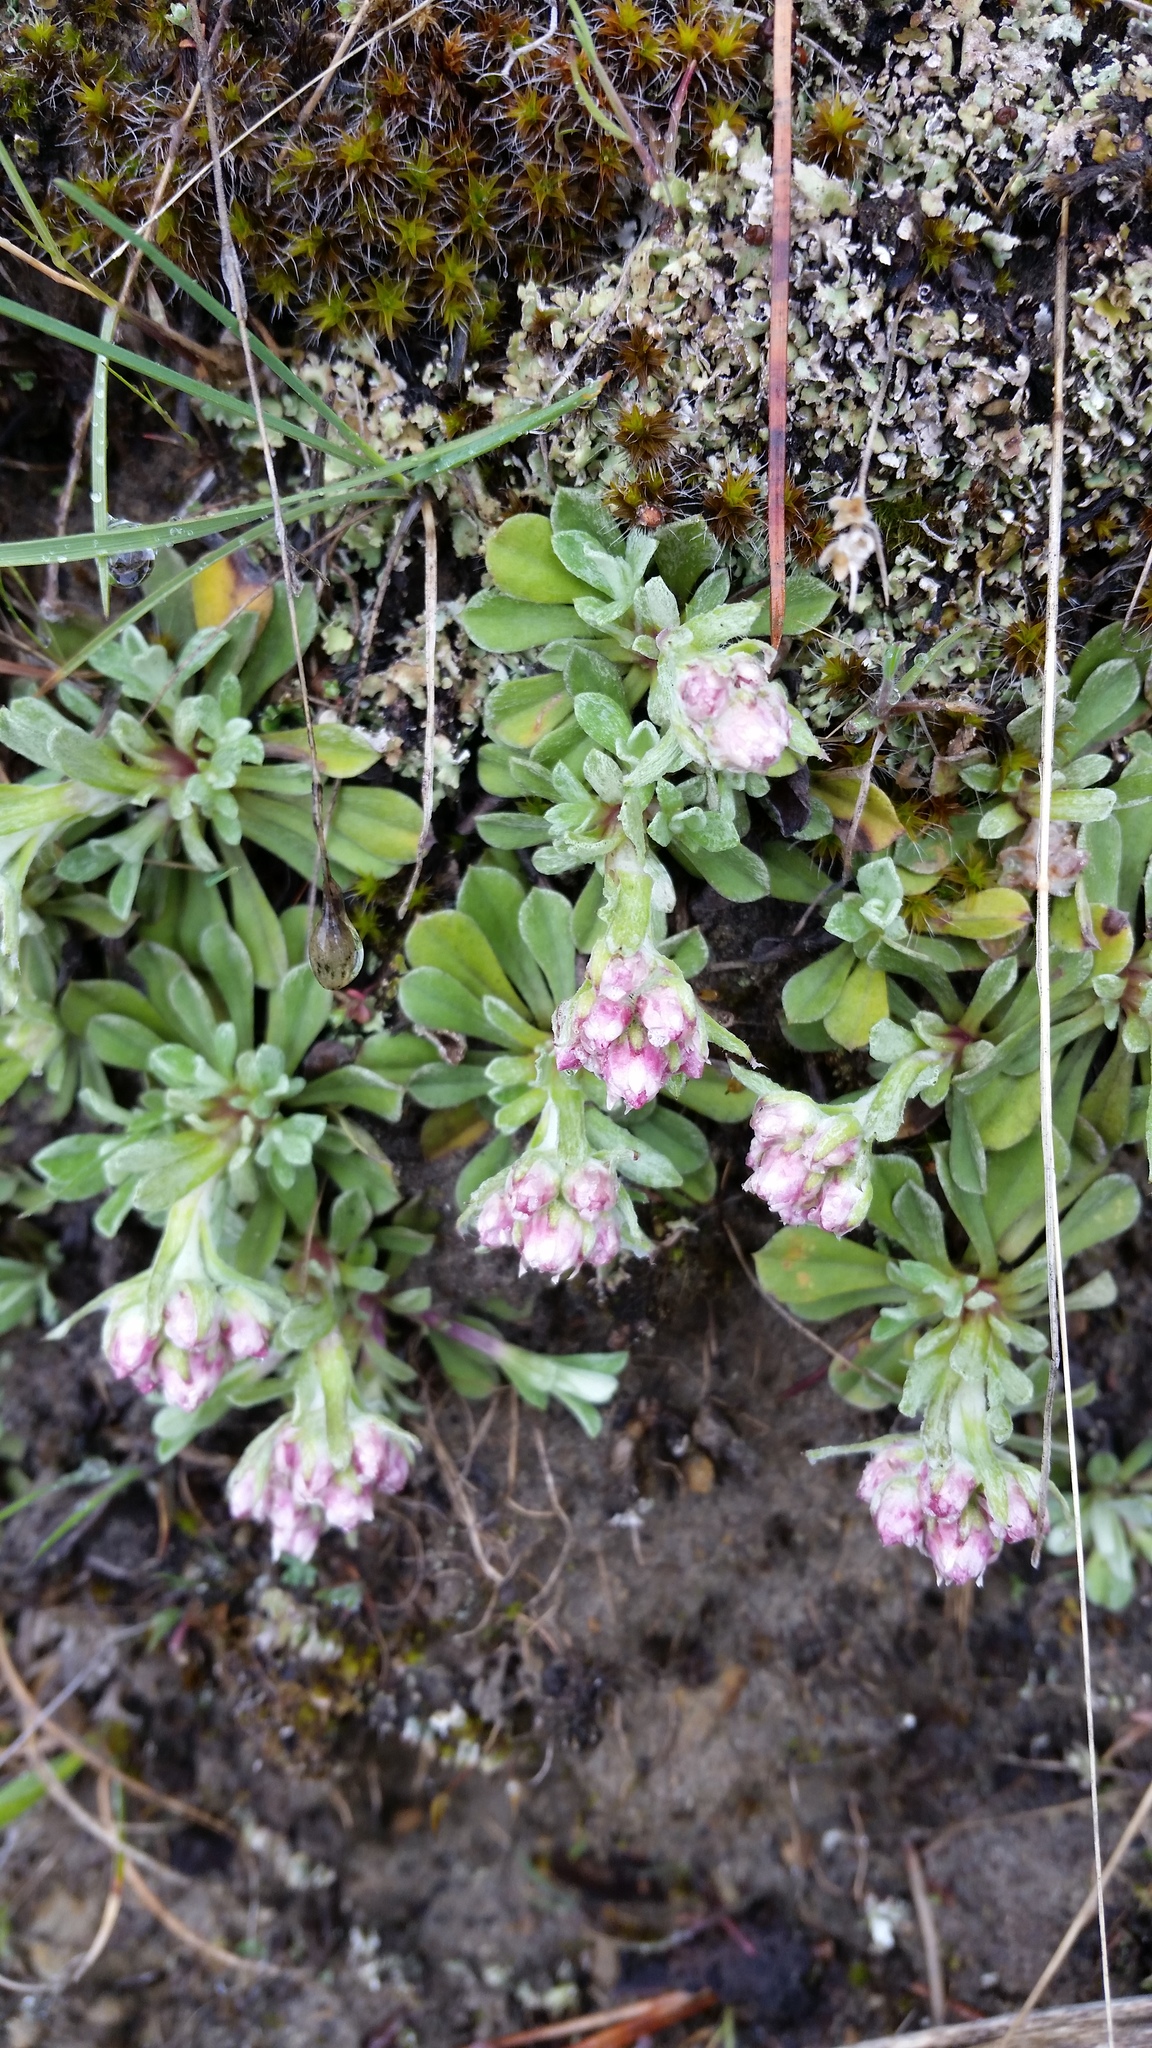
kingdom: Plantae
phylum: Tracheophyta
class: Magnoliopsida
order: Asterales
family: Asteraceae
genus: Antennaria
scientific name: Antennaria rosea
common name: Rosy pussytoes
